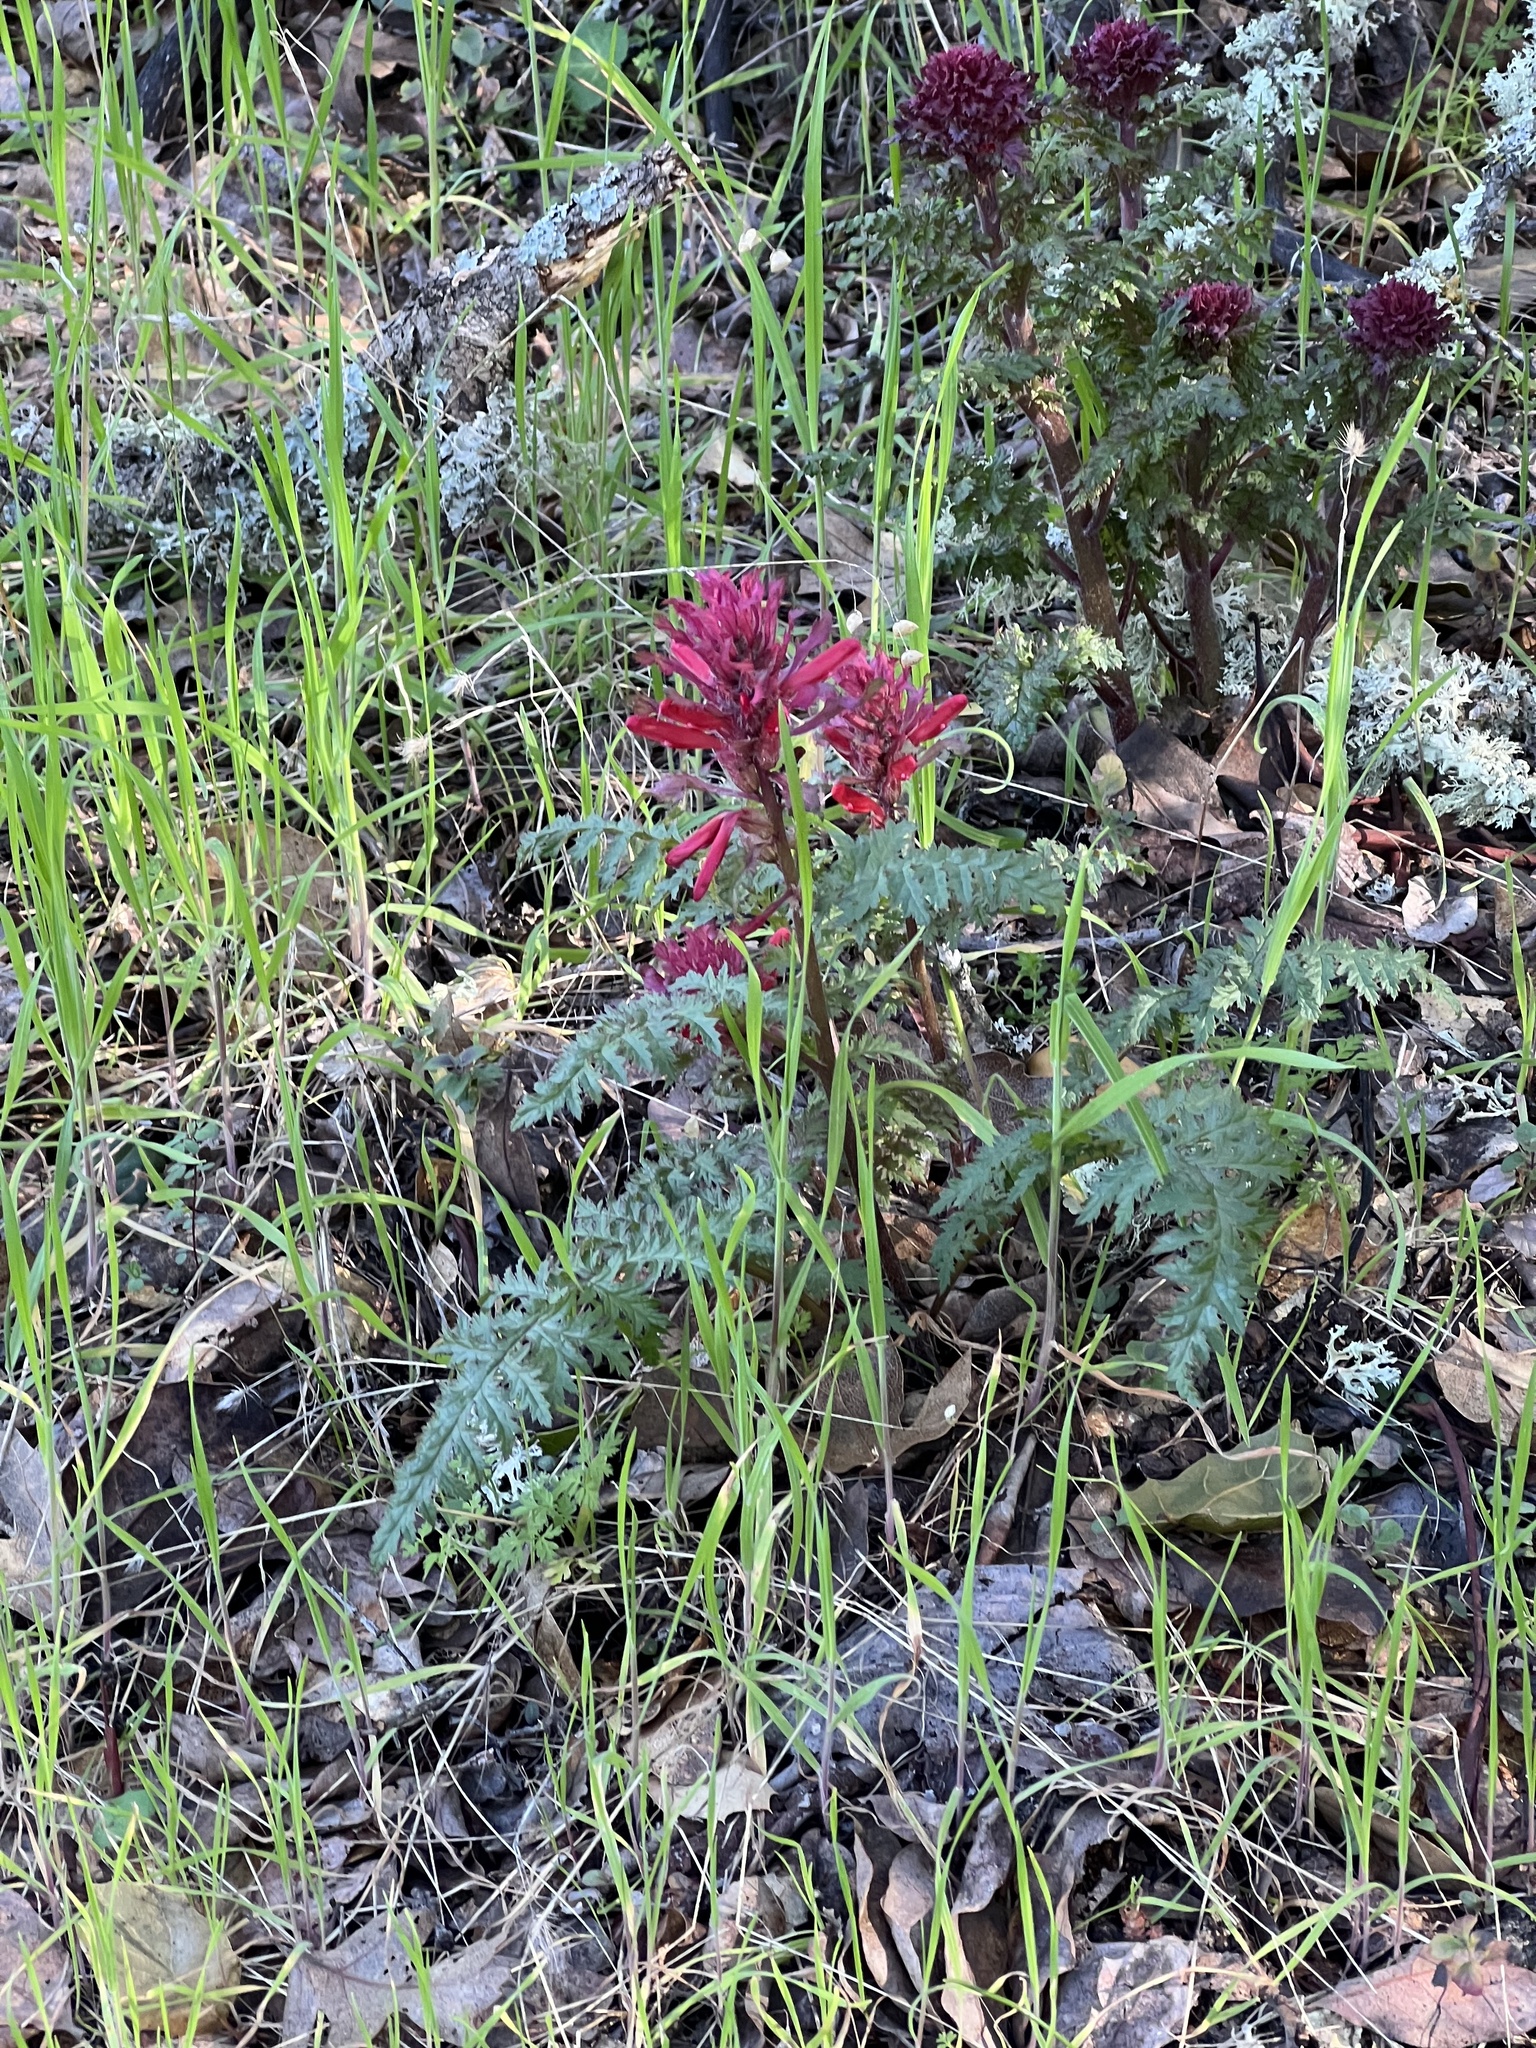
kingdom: Plantae
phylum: Tracheophyta
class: Magnoliopsida
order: Lamiales
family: Orobanchaceae
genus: Pedicularis
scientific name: Pedicularis densiflora
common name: Indian warrior
